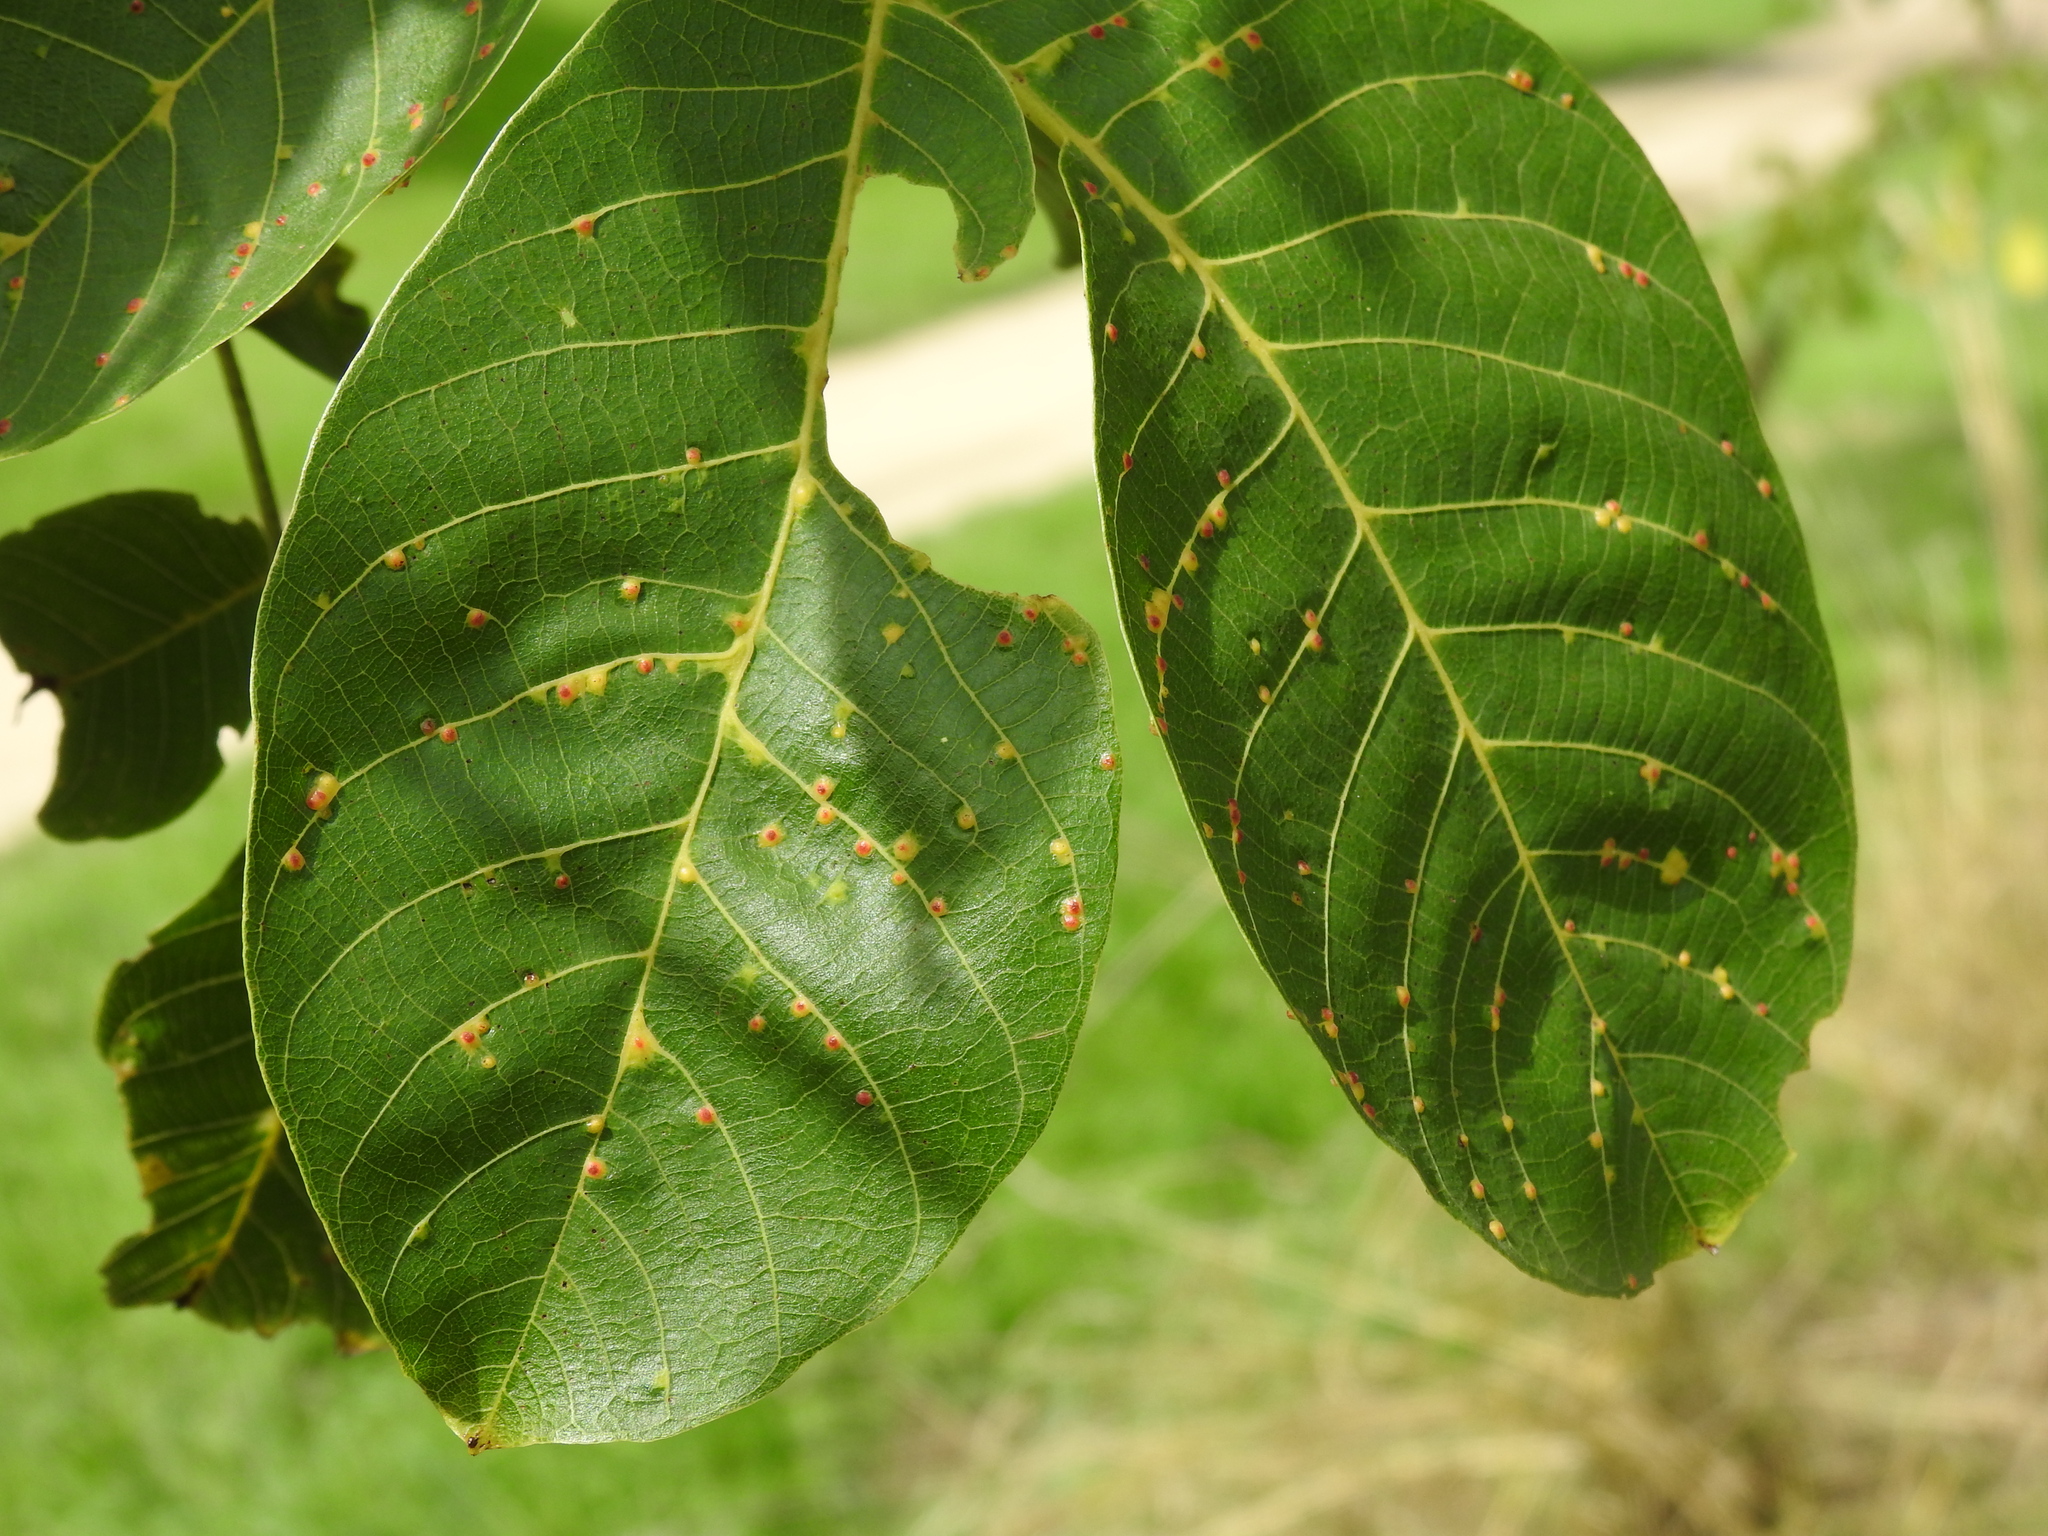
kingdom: Animalia
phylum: Arthropoda
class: Arachnida
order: Trombidiformes
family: Eriophyidae
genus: Aceria
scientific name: Aceria tristriata
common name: Persian walnut leaf blister mite
